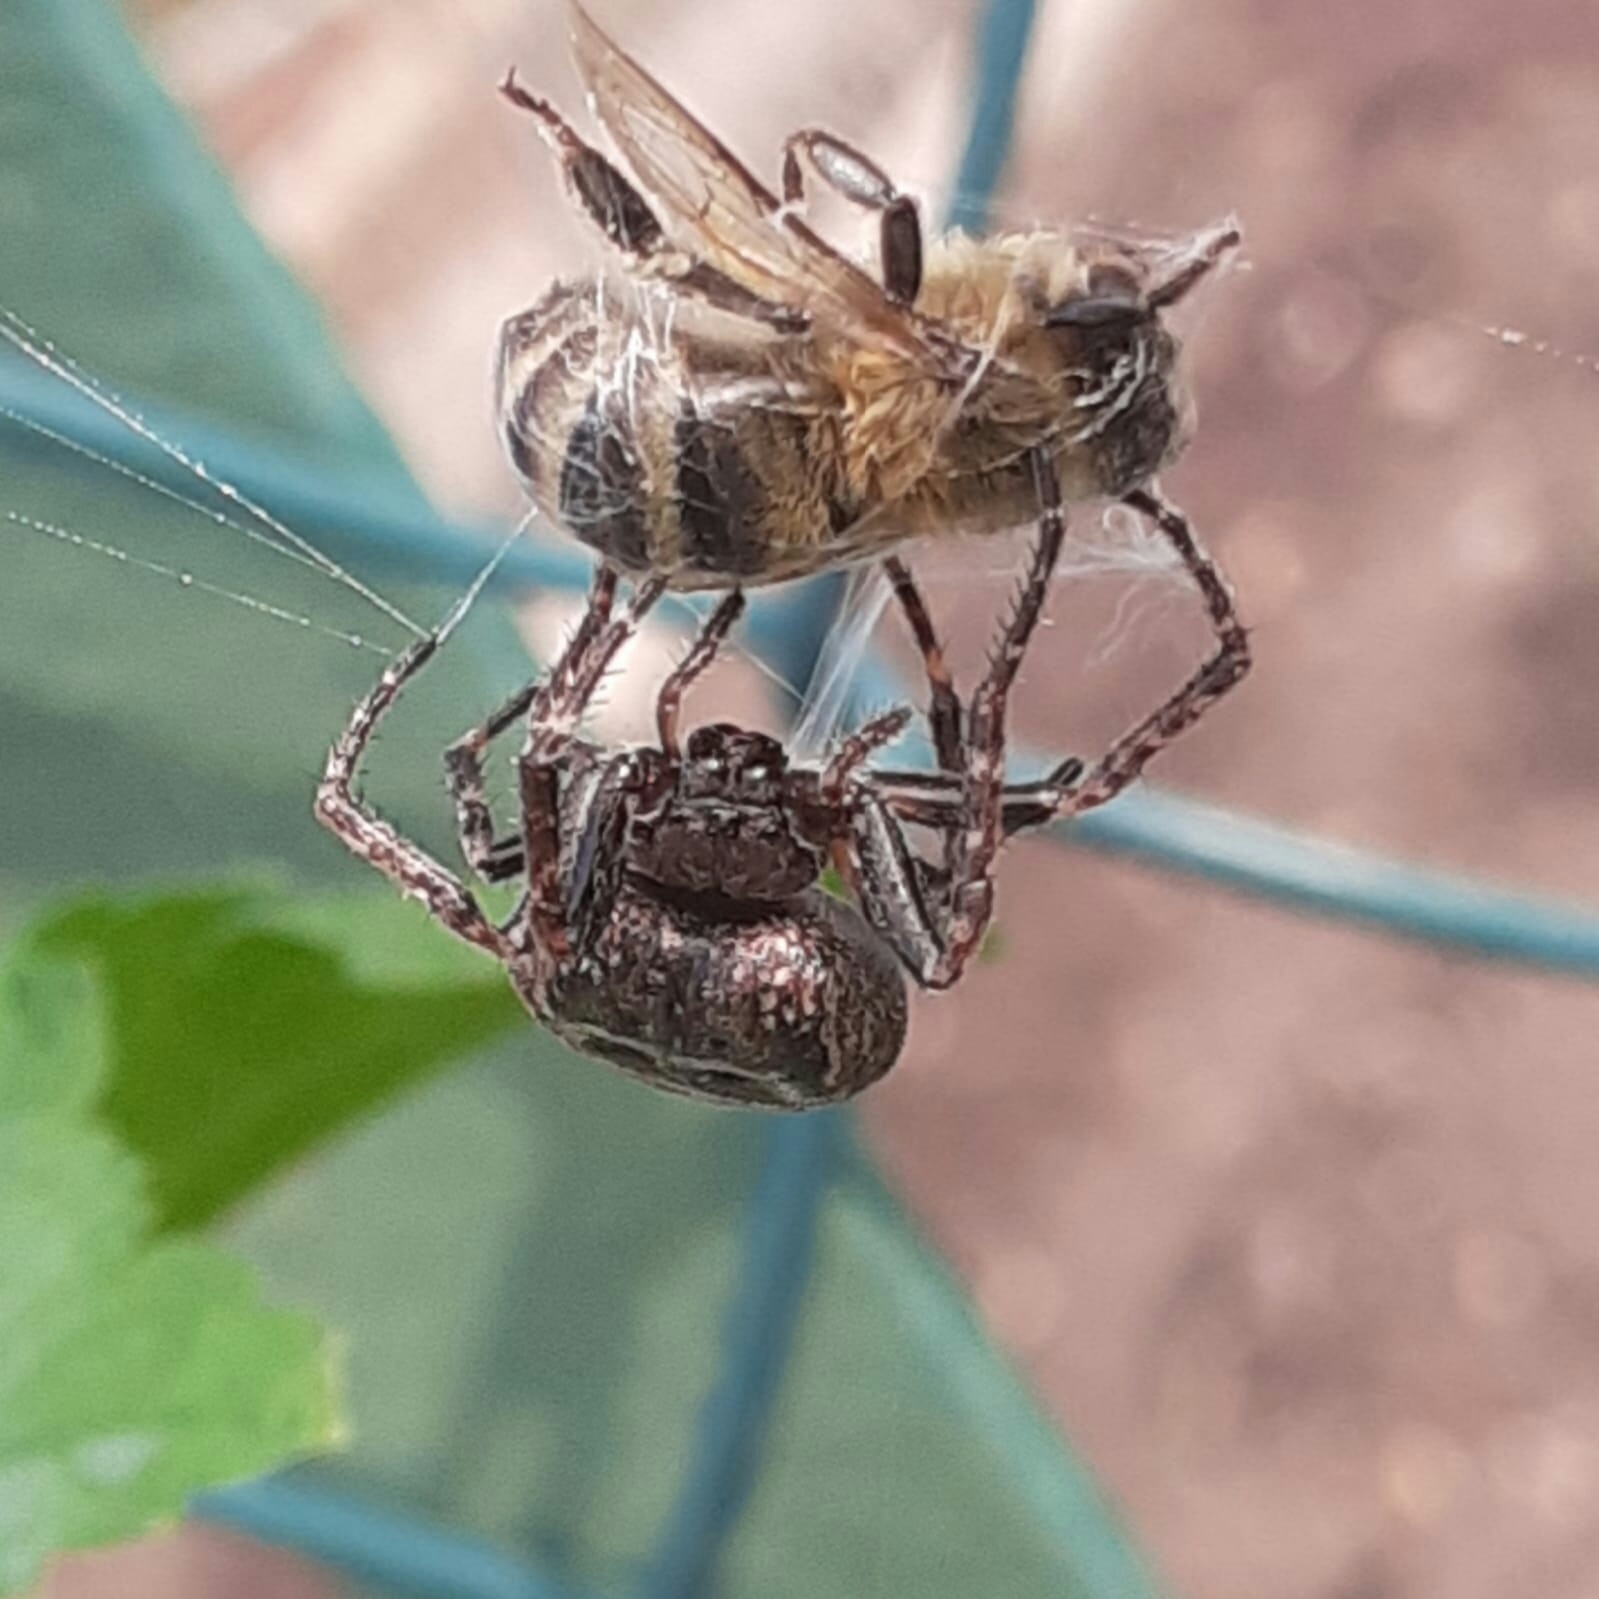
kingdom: Animalia
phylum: Arthropoda
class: Arachnida
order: Araneae
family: Araneidae
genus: Nuctenea
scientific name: Nuctenea umbratica
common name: Toad spider
